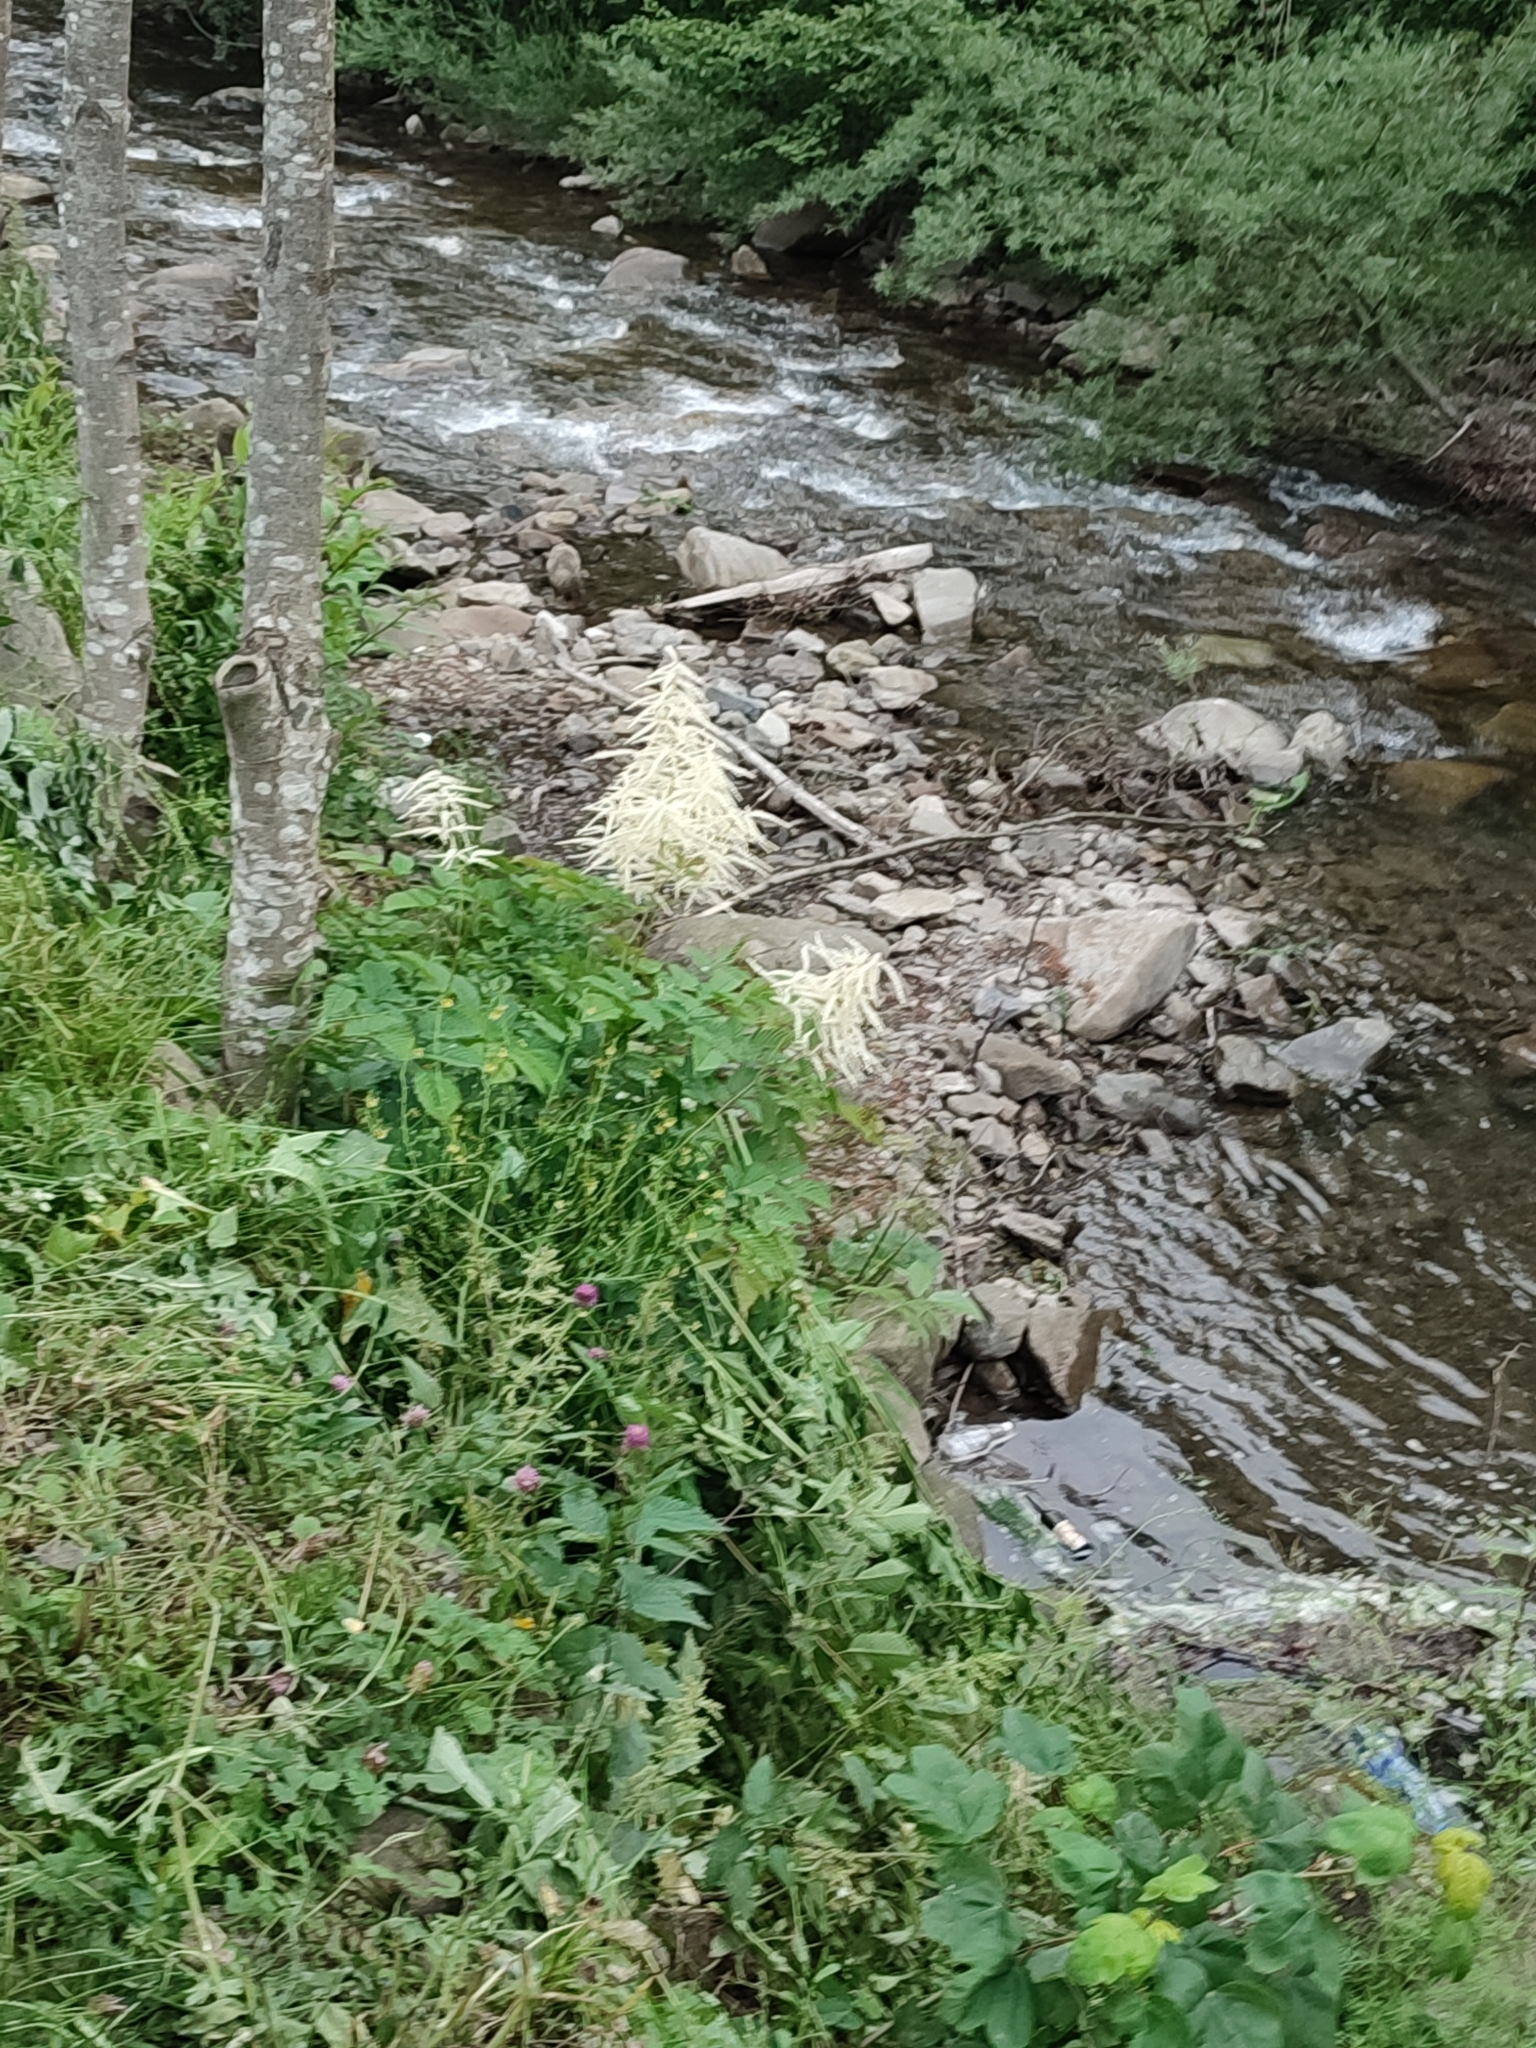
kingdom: Plantae
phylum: Tracheophyta
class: Magnoliopsida
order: Rosales
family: Rosaceae
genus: Aruncus
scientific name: Aruncus dioicus
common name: Buck's-beard
